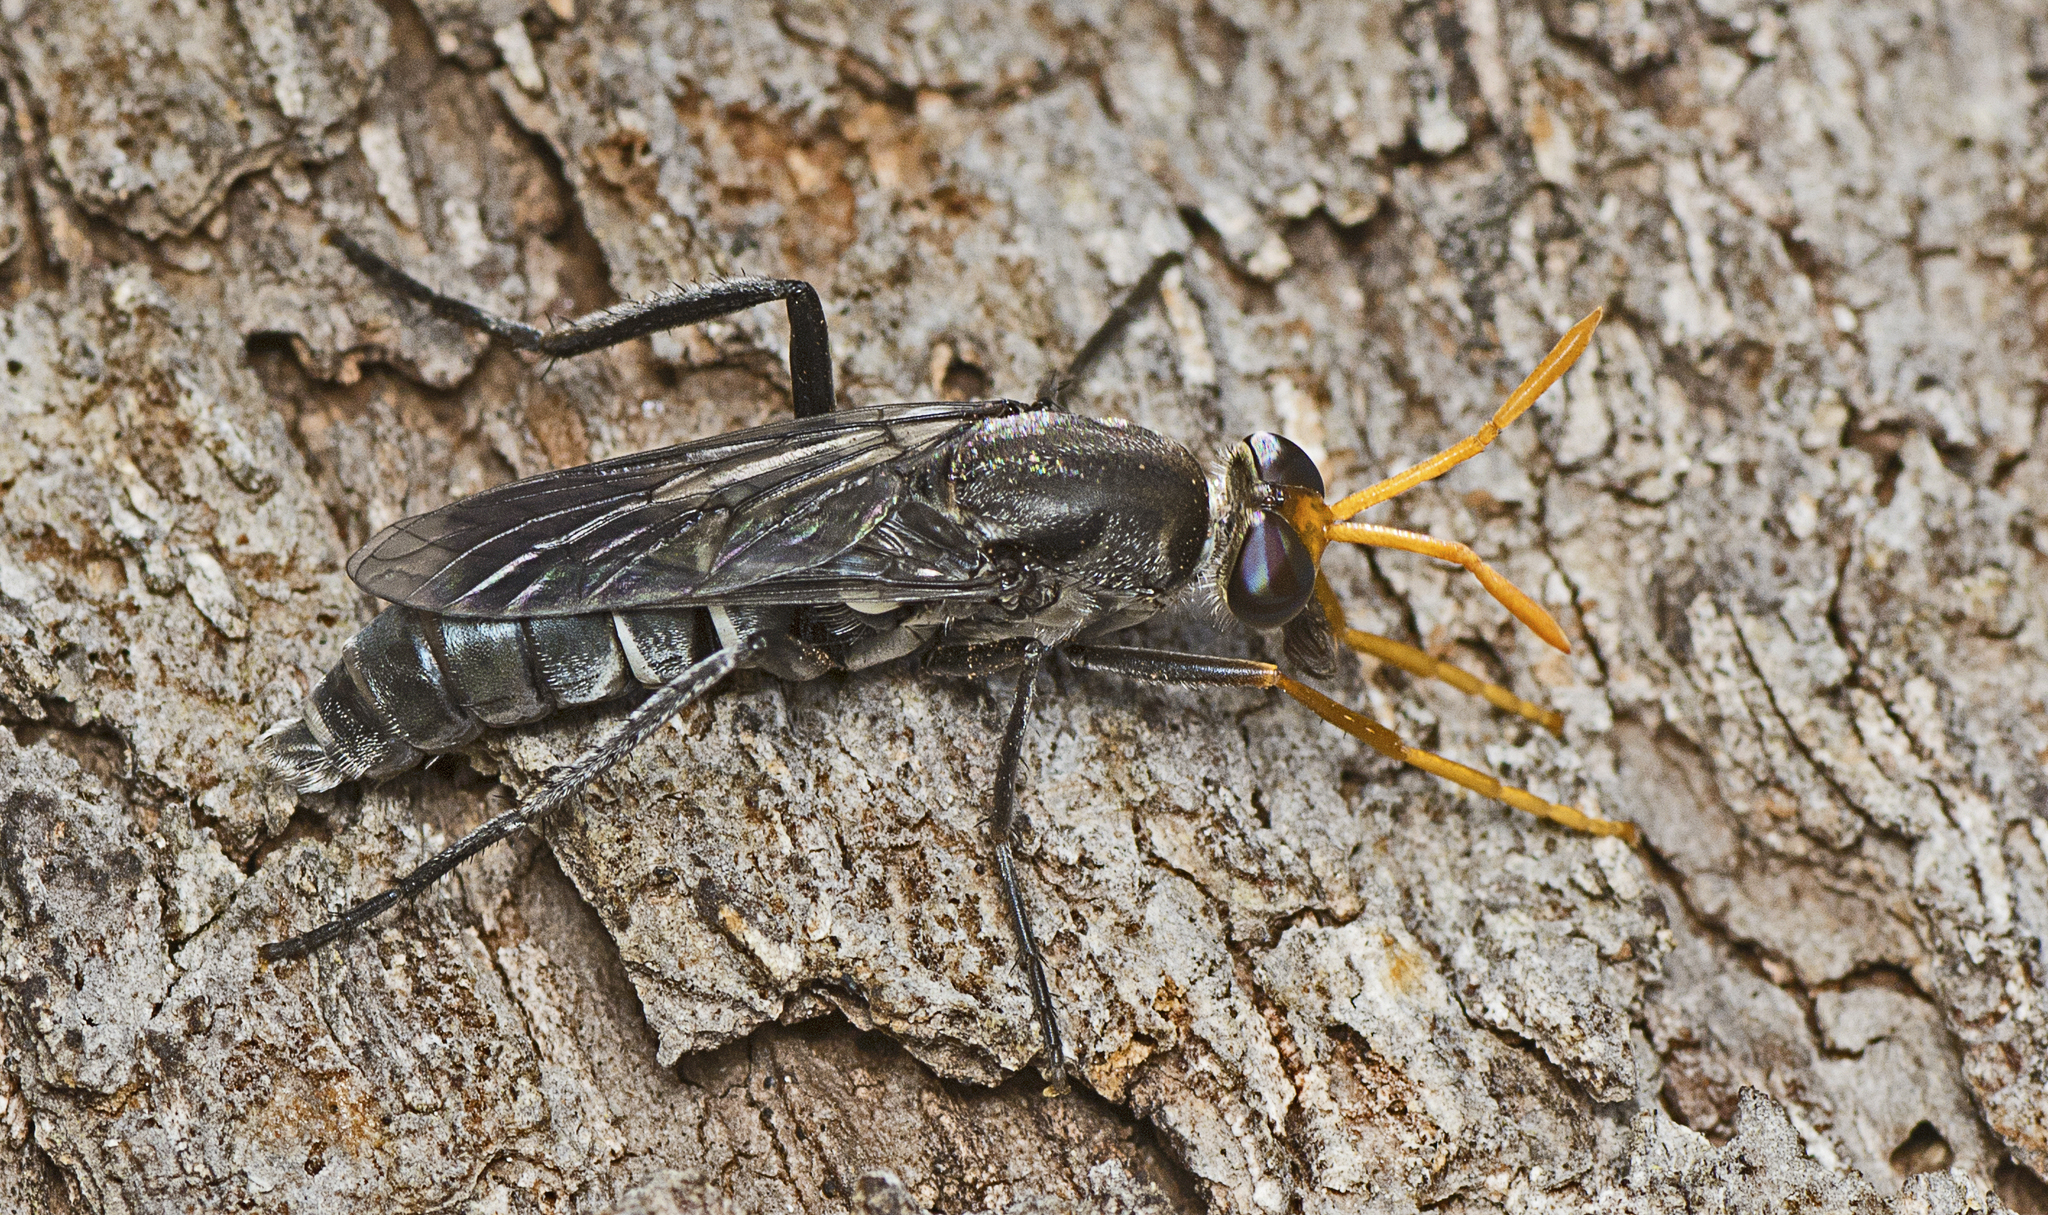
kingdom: Animalia
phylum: Arthropoda
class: Insecta
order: Diptera
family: Therevidae
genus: Phycus
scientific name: Phycus pallidicornis
